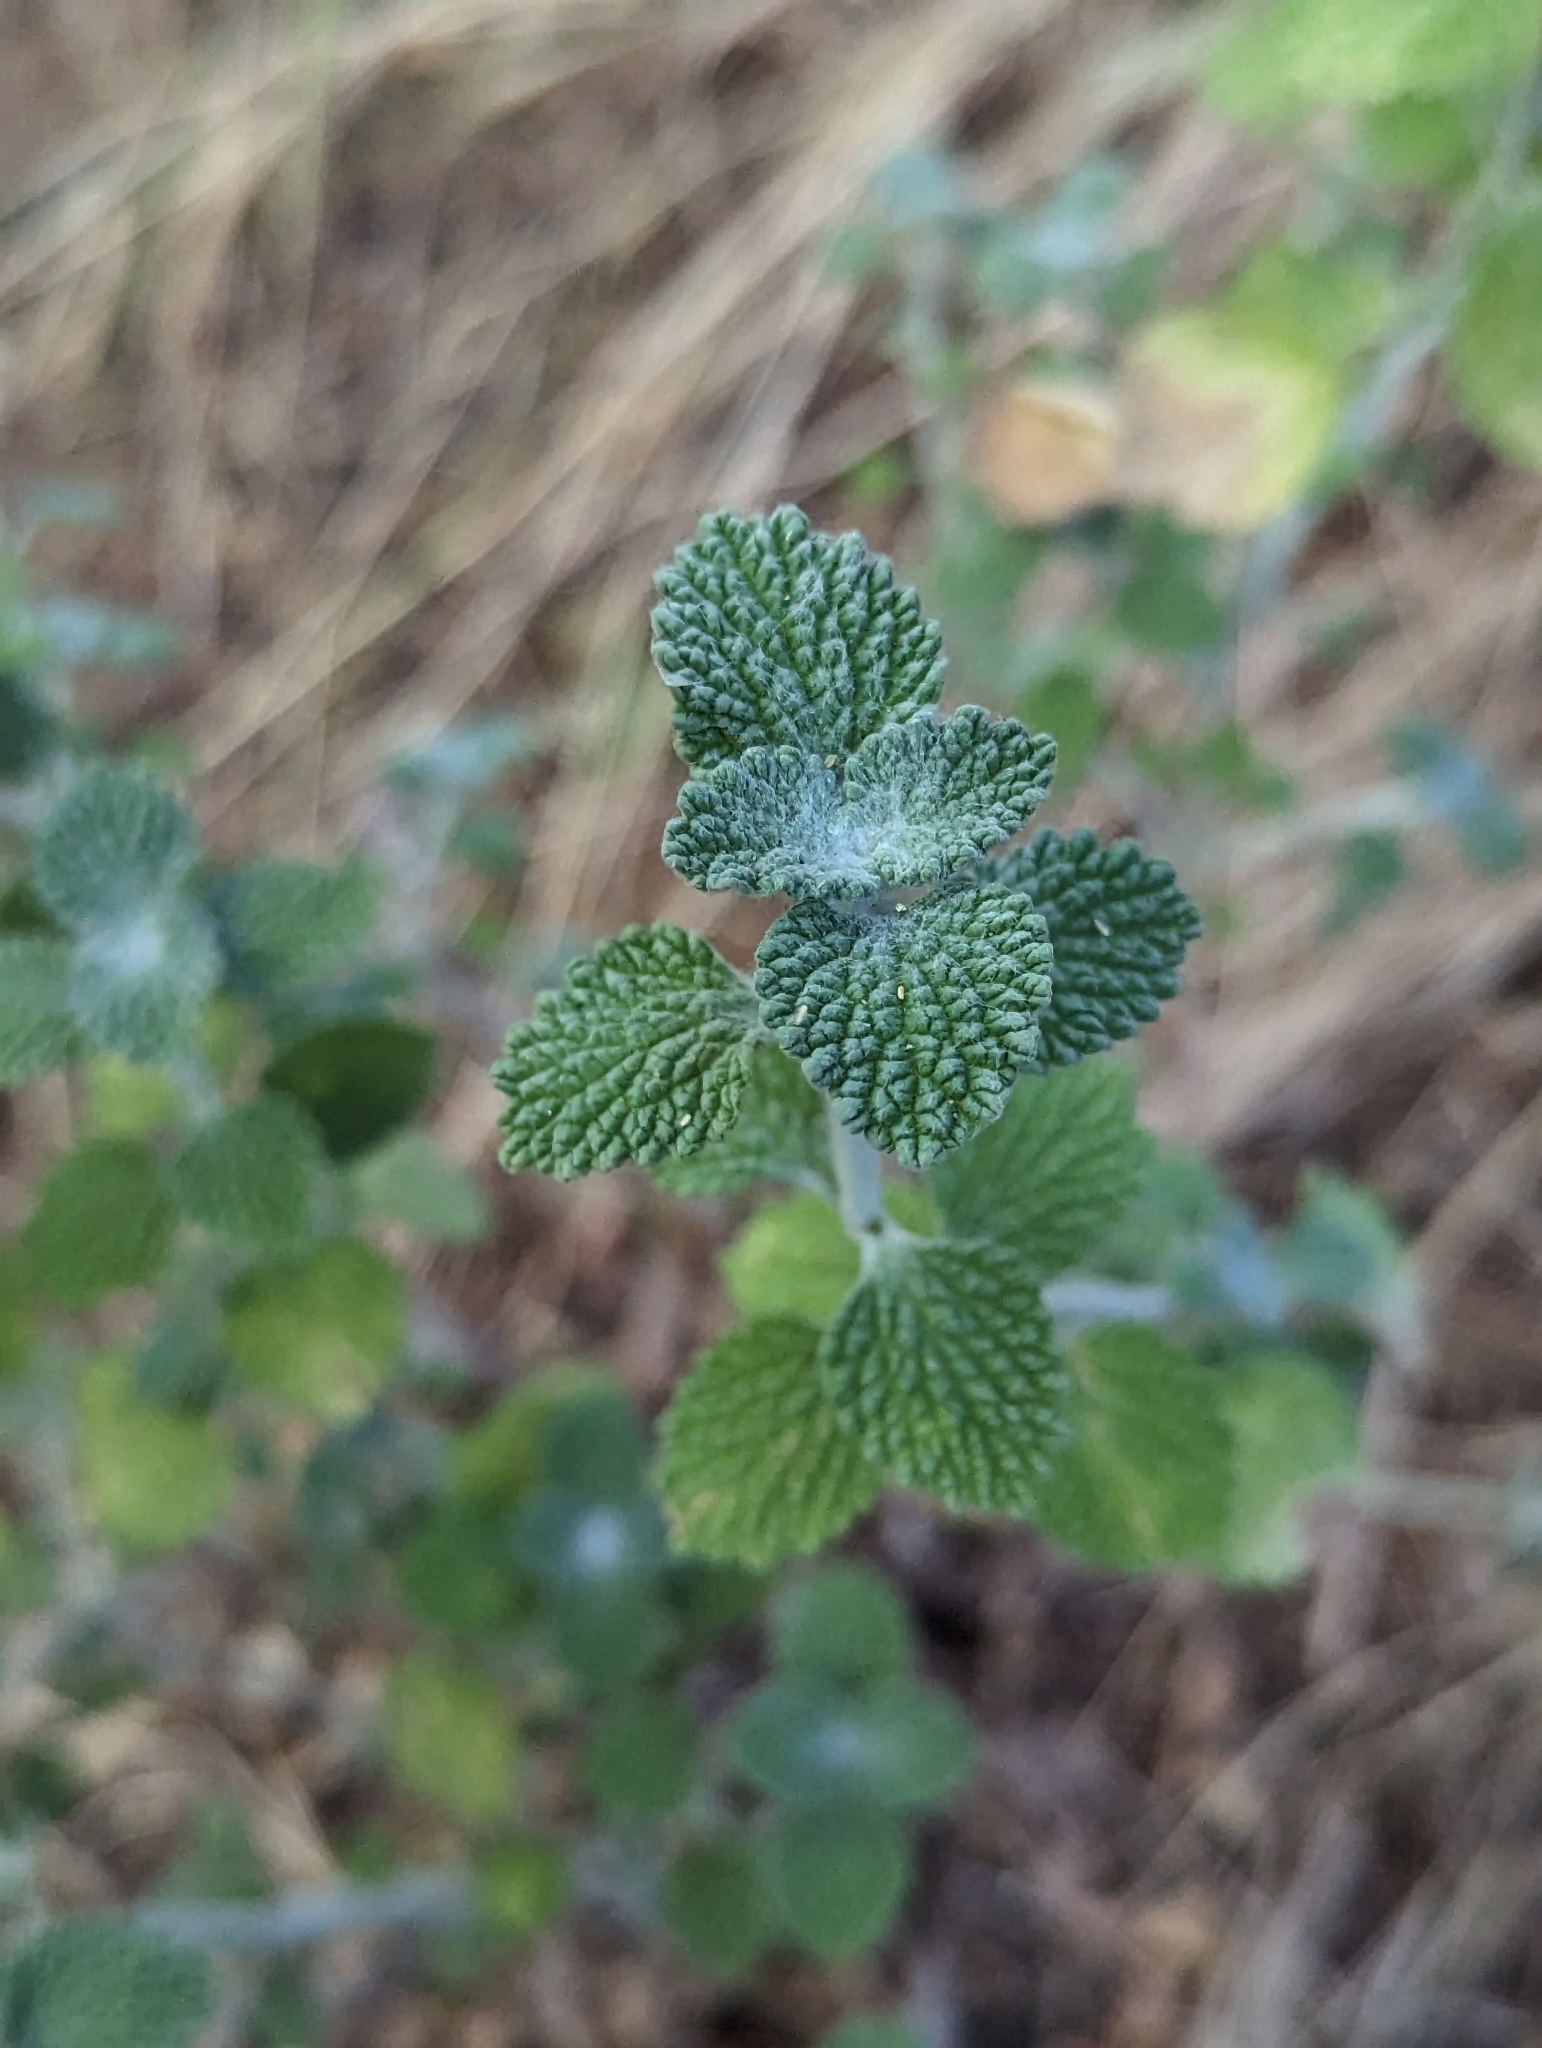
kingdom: Plantae
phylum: Tracheophyta
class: Magnoliopsida
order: Lamiales
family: Lamiaceae
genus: Marrubium
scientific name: Marrubium vulgare
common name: Horehound
